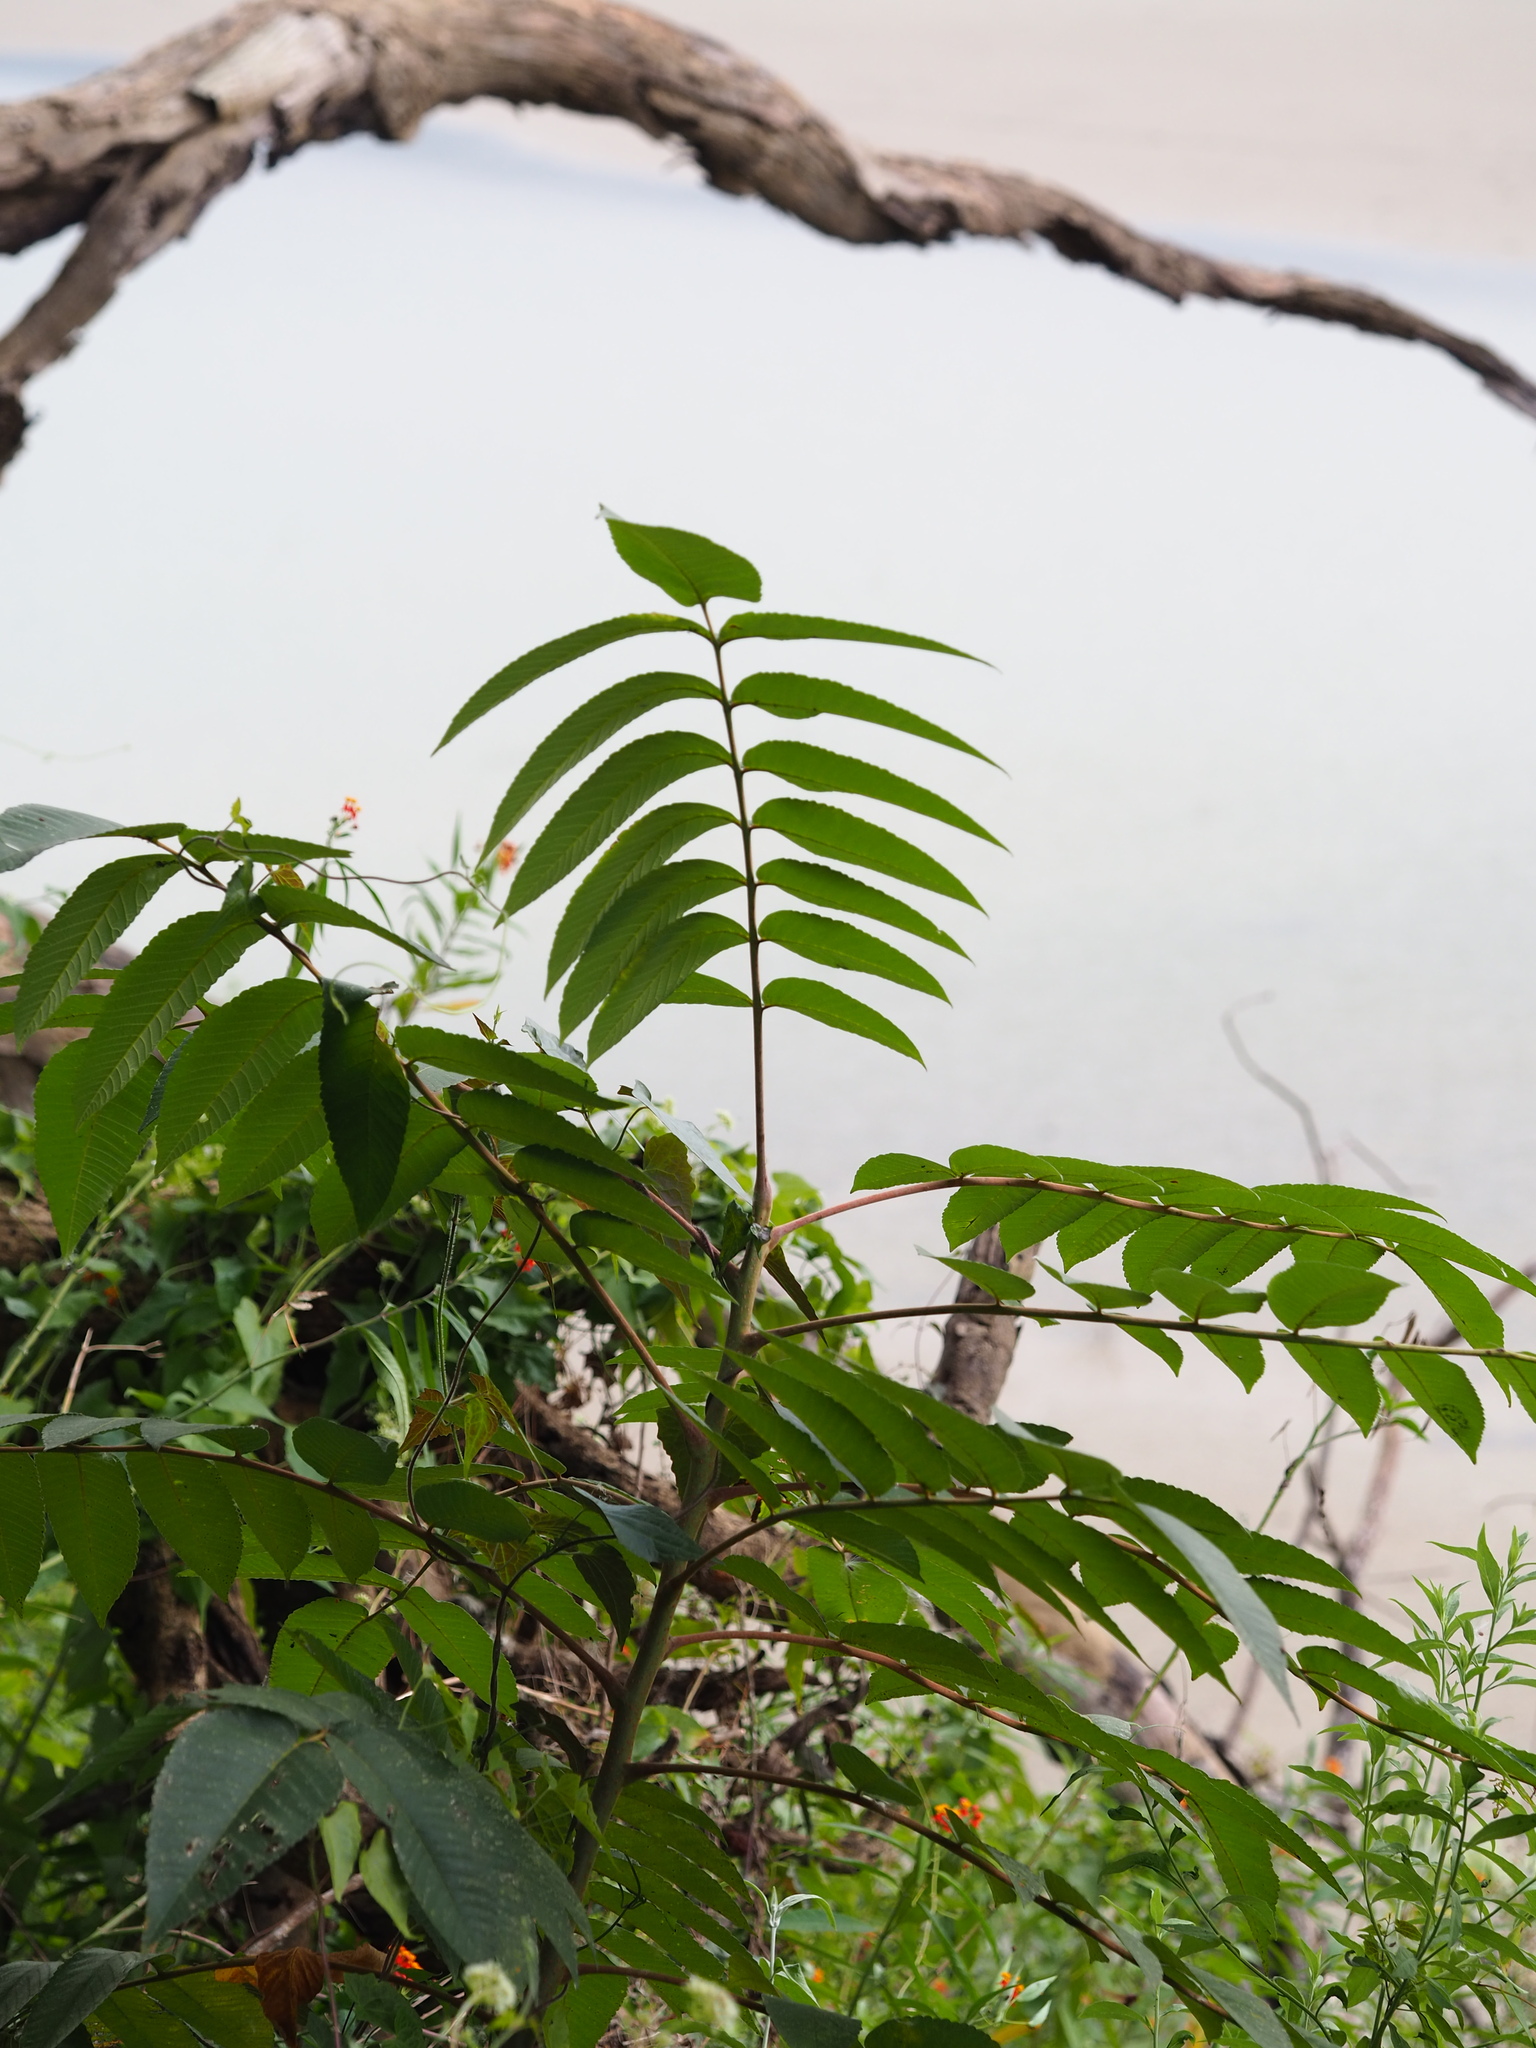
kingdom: Plantae
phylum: Tracheophyta
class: Magnoliopsida
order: Sapindales
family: Anacardiaceae
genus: Rhus
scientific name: Rhus chinensis
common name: Chinese gall
